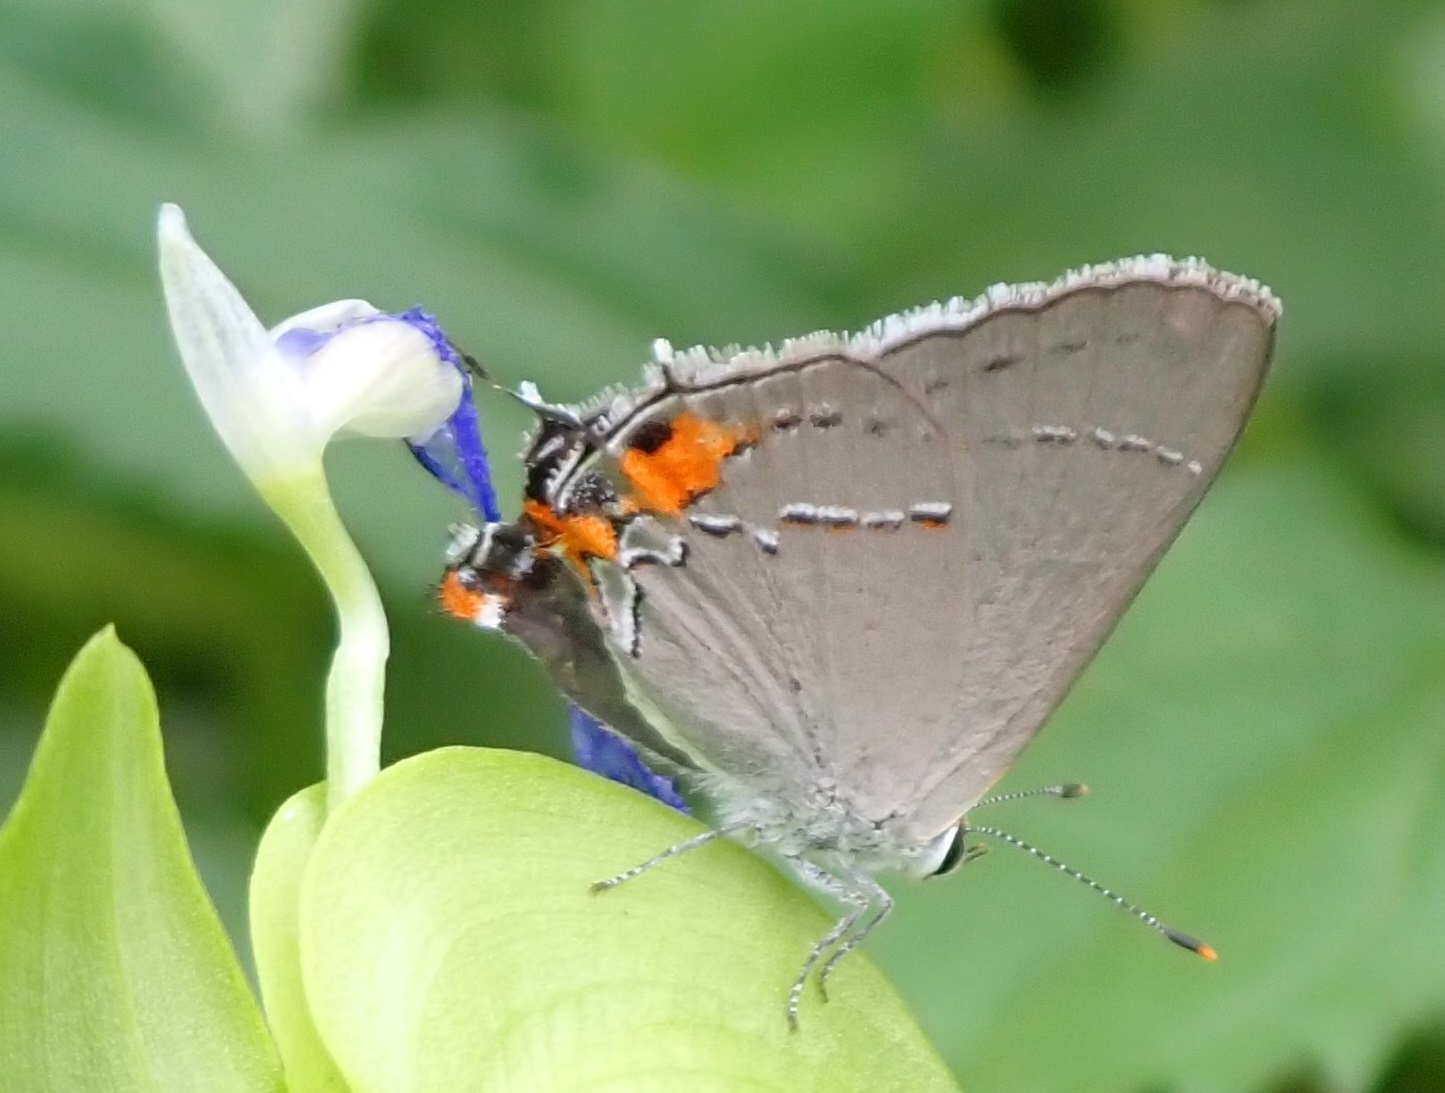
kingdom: Animalia
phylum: Arthropoda
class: Insecta
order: Lepidoptera
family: Lycaenidae
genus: Strymon
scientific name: Strymon melinus
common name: Gray hairstreak
